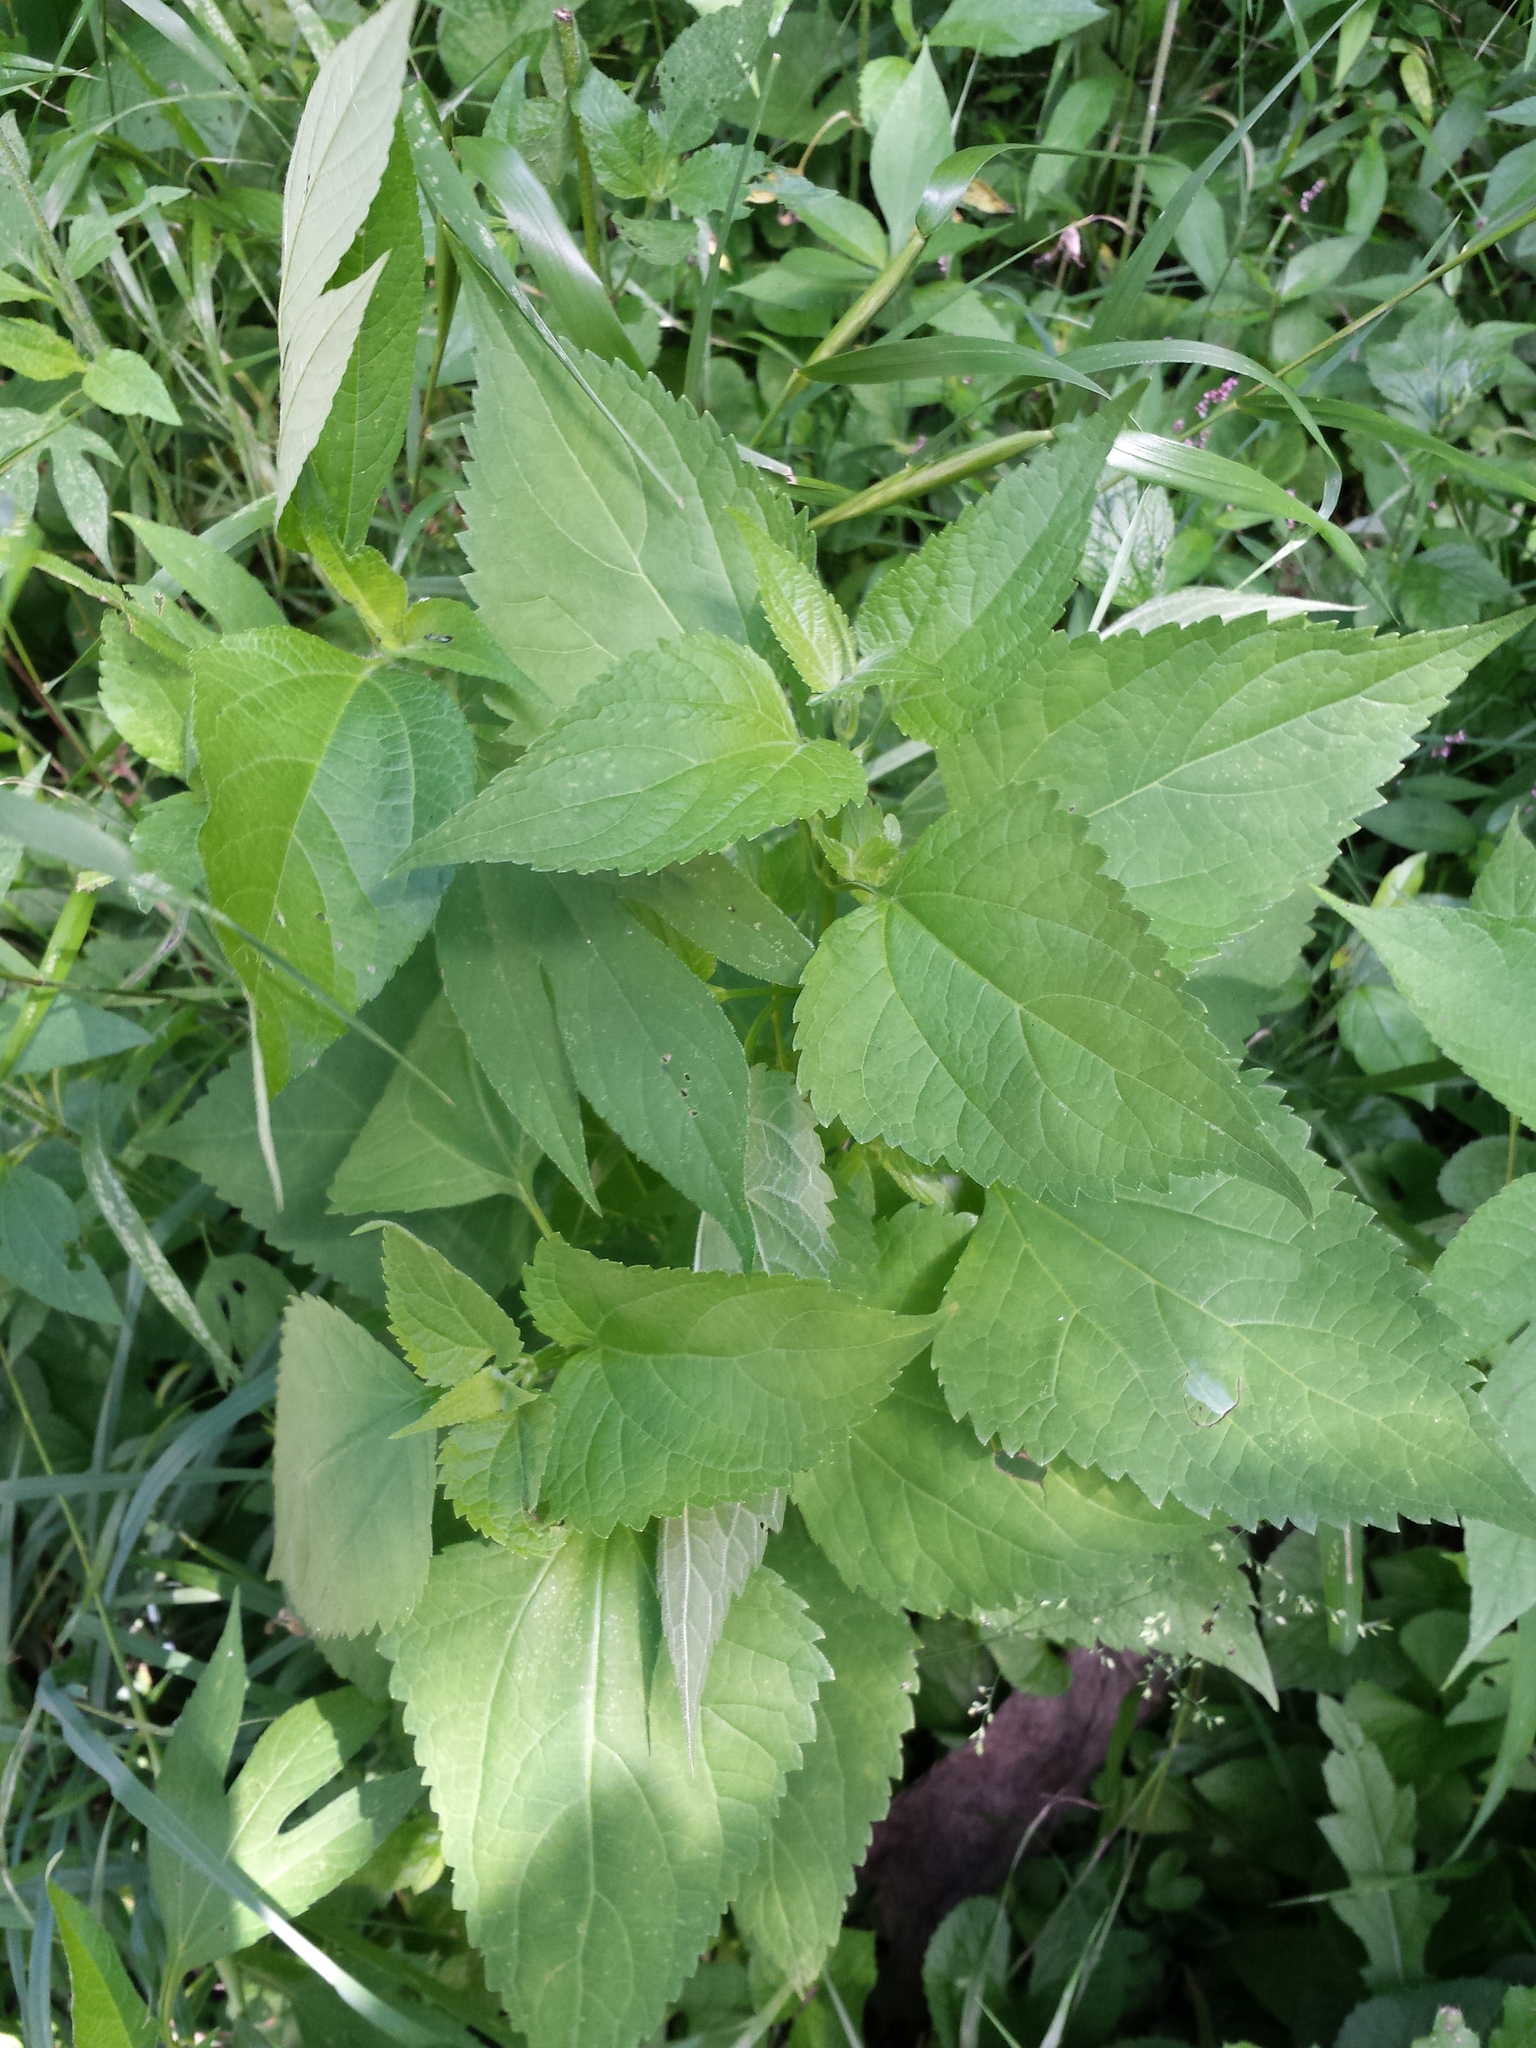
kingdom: Plantae
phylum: Tracheophyta
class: Magnoliopsida
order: Asterales
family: Asteraceae
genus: Ageratina
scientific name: Ageratina altissima
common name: White snakeroot
